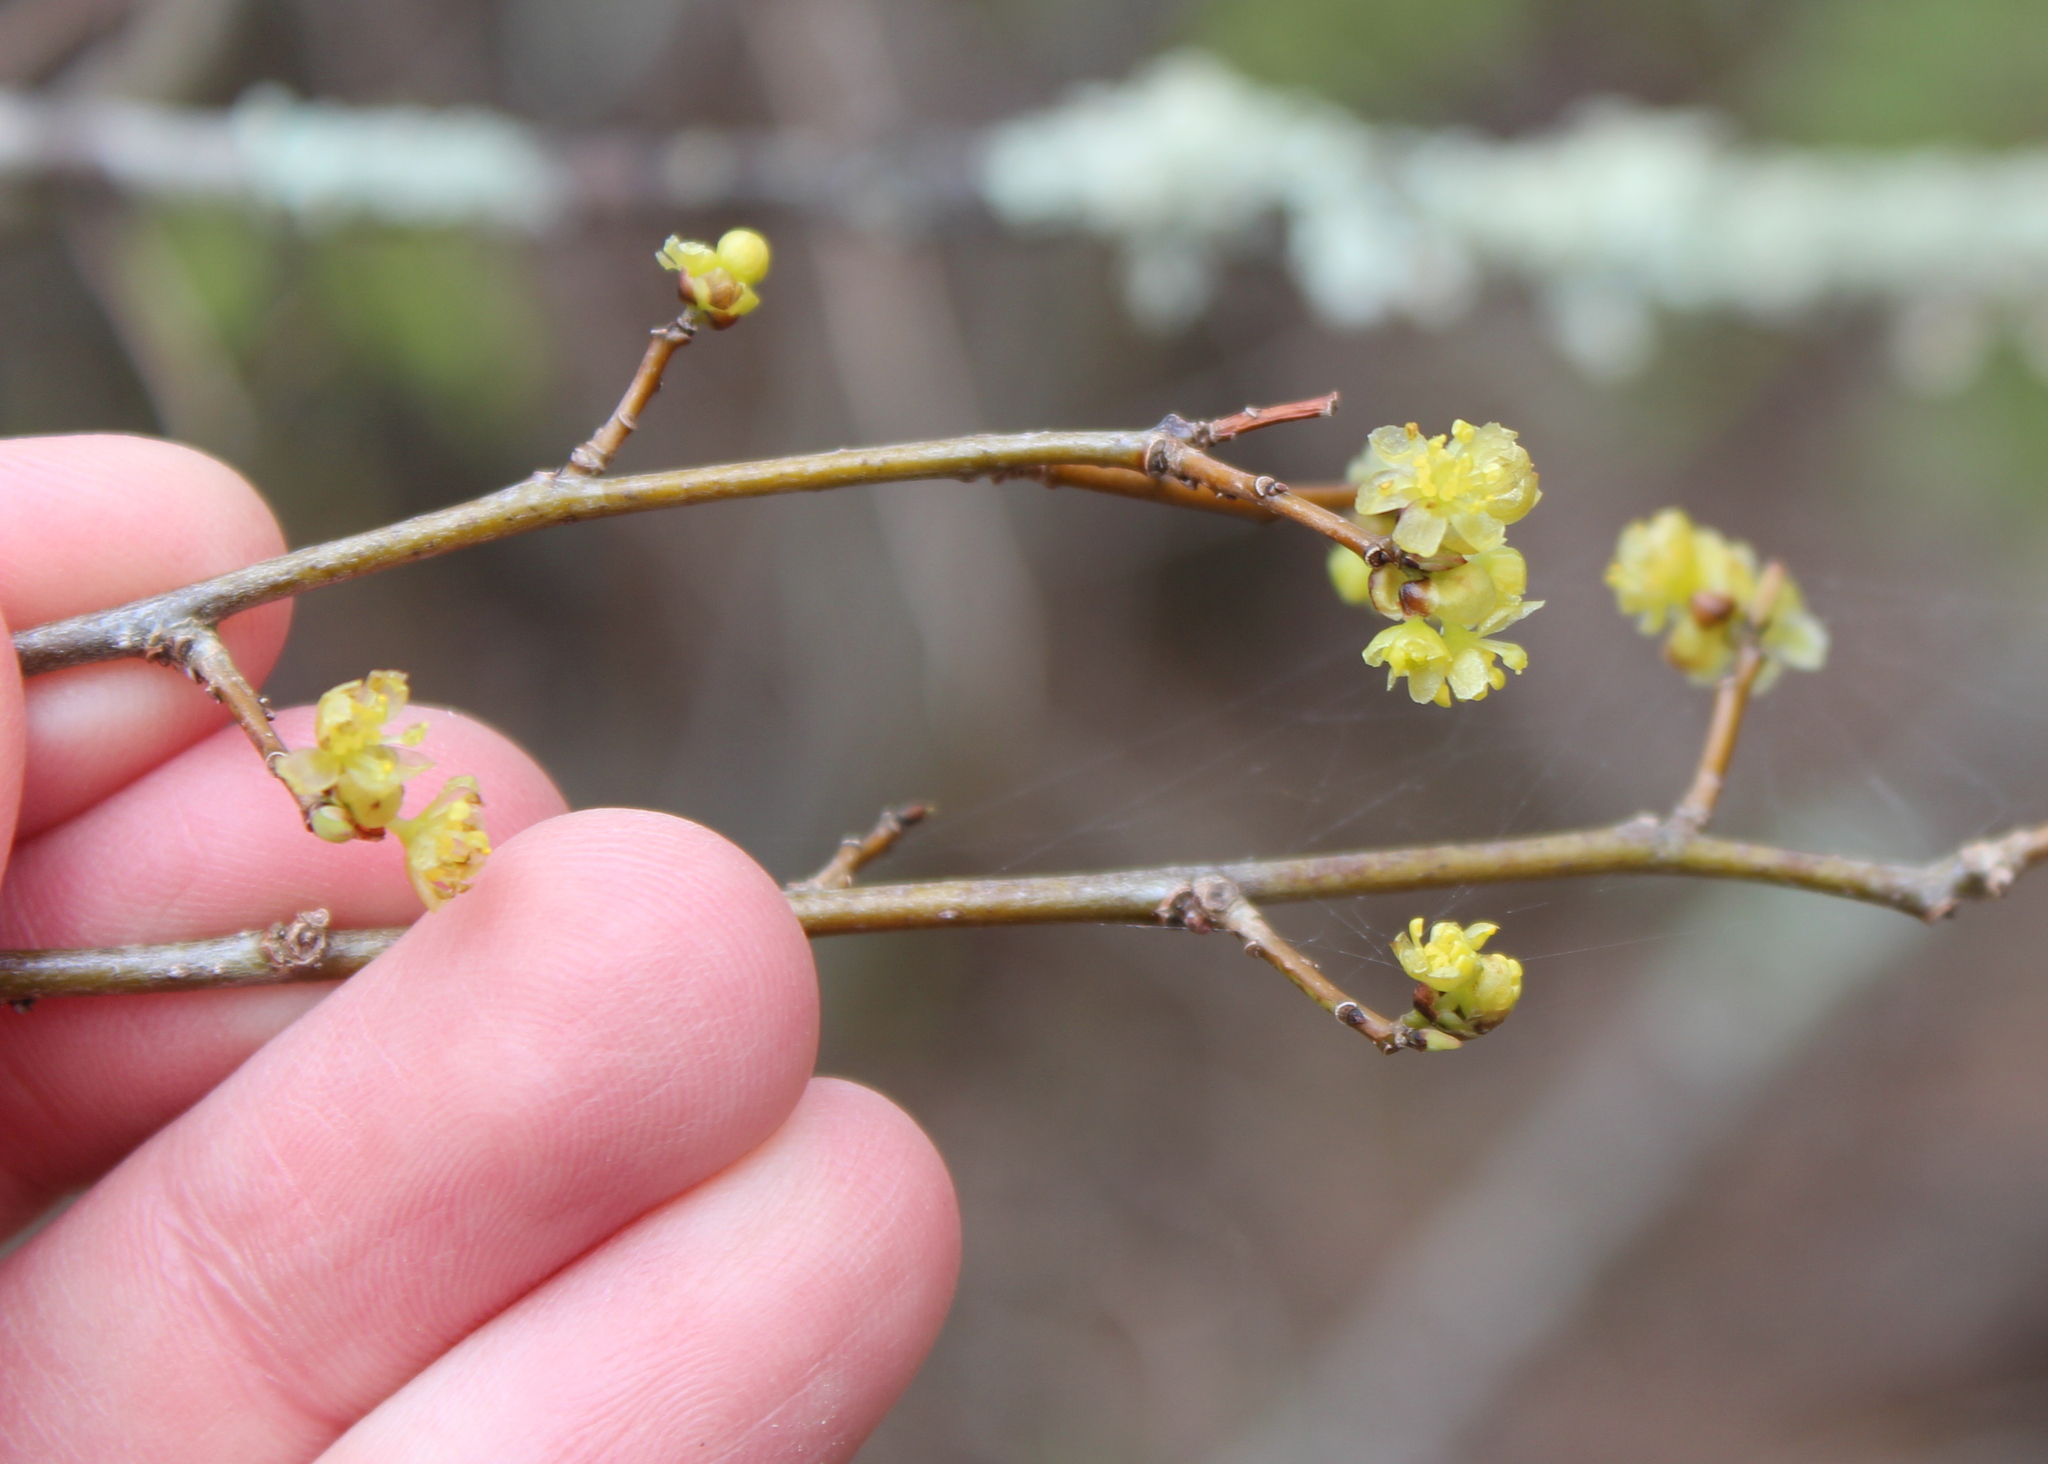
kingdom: Plantae
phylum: Tracheophyta
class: Magnoliopsida
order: Laurales
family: Lauraceae
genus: Lindera
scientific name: Lindera benzoin
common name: Spicebush
